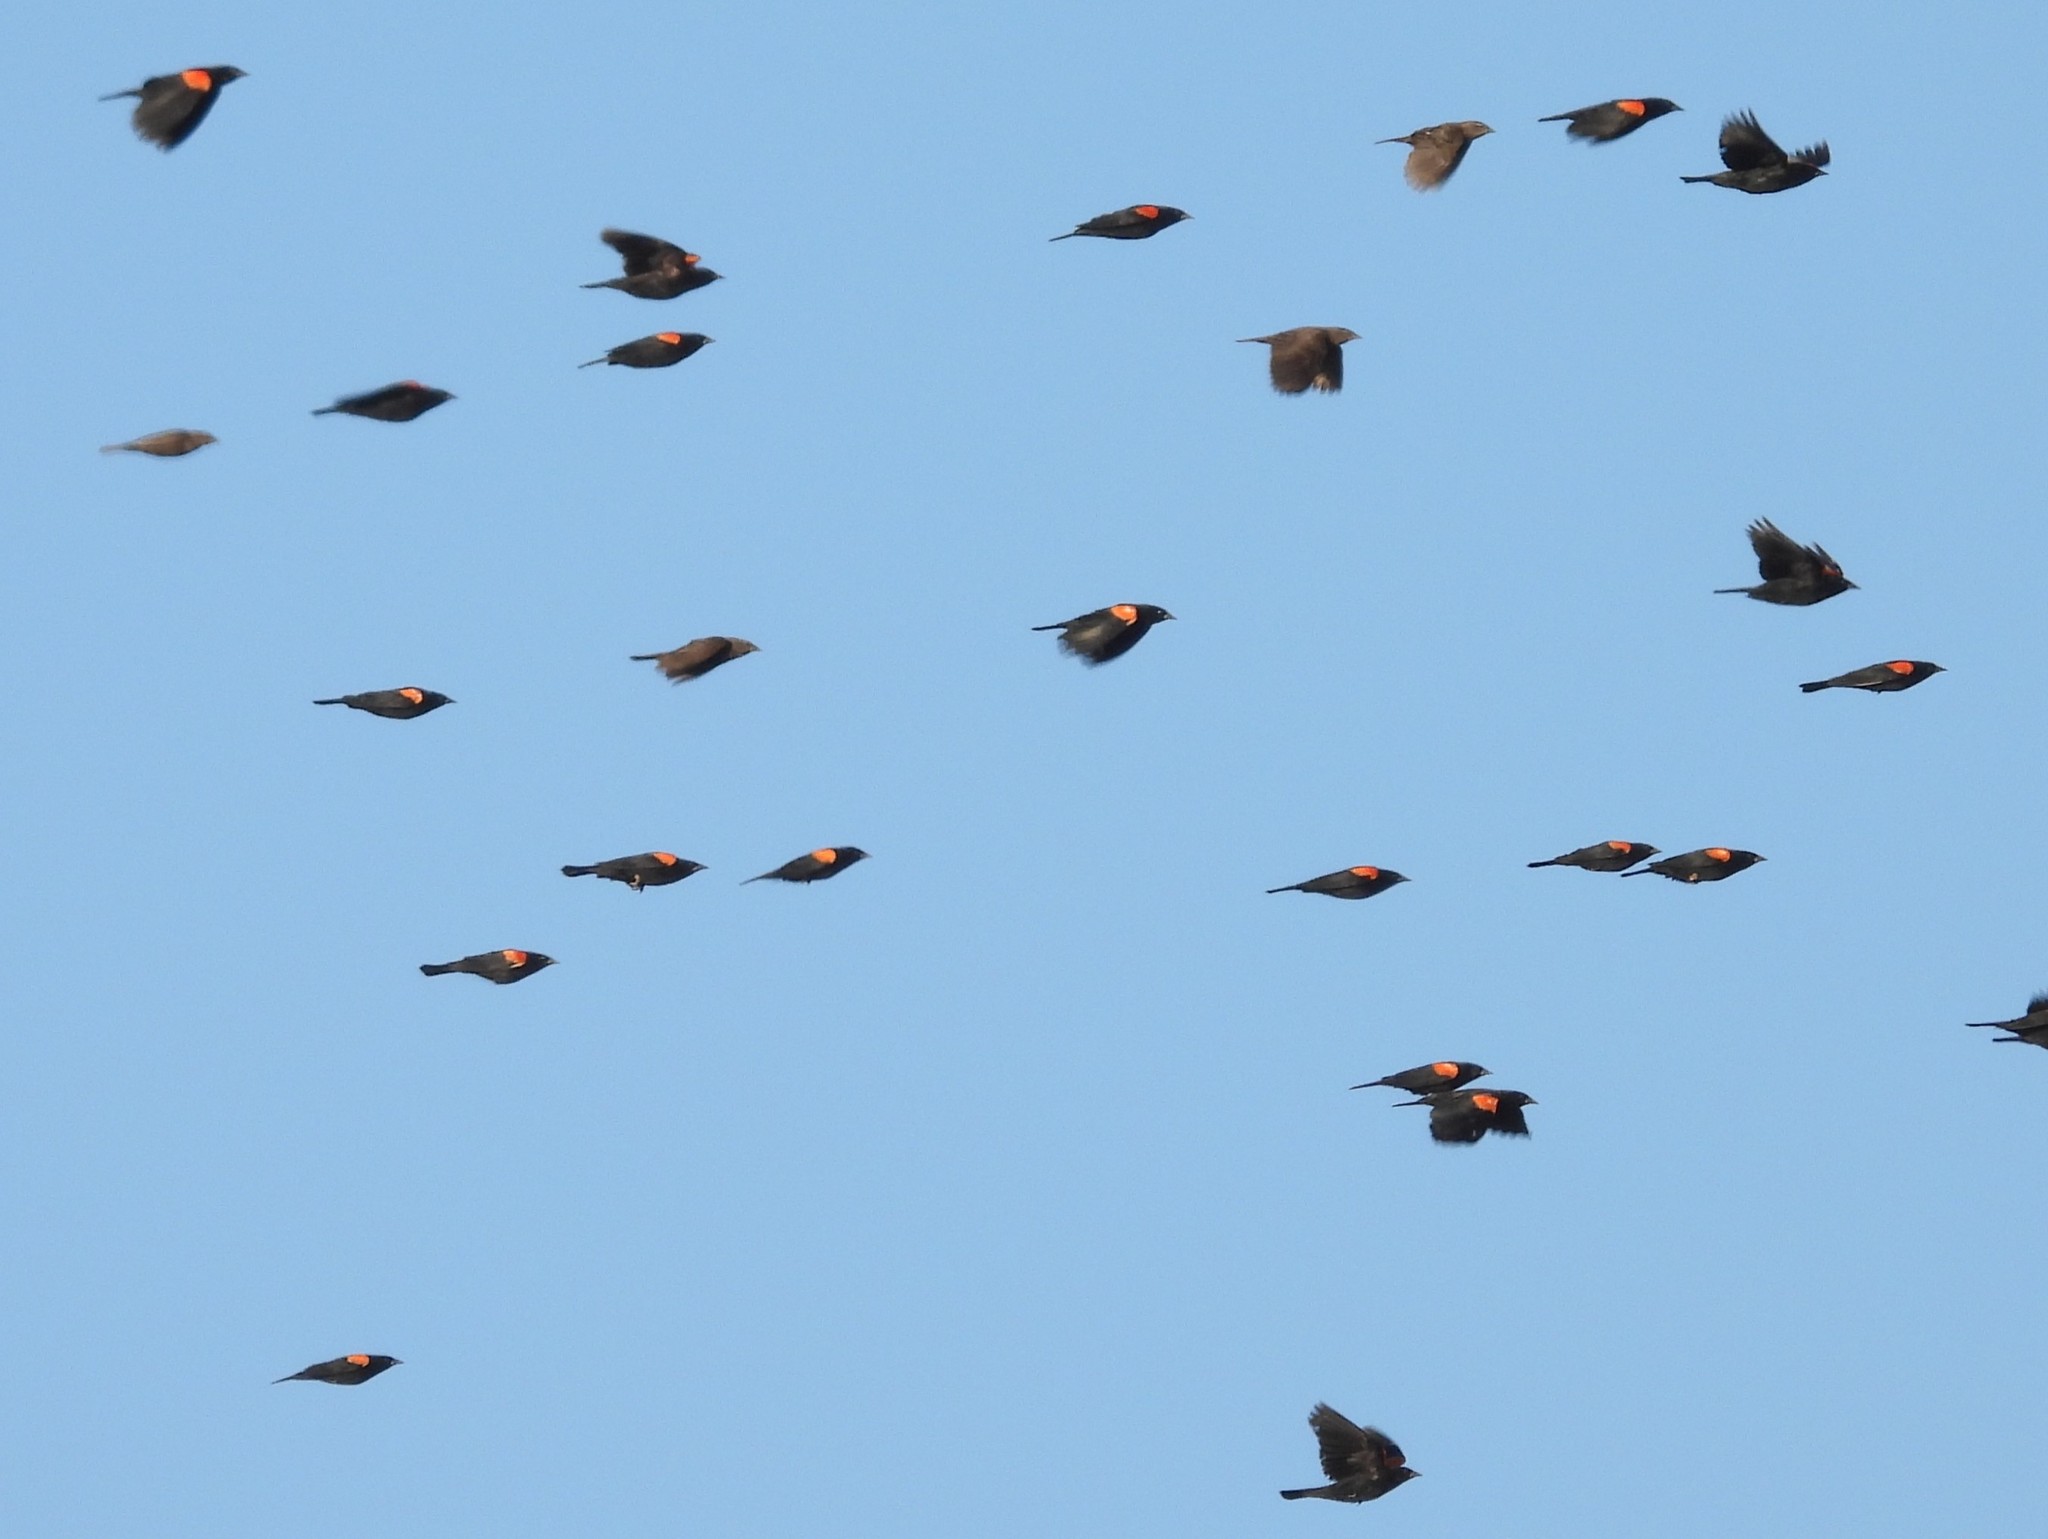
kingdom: Animalia
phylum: Chordata
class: Aves
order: Passeriformes
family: Icteridae
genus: Agelaius
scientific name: Agelaius phoeniceus
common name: Red-winged blackbird
